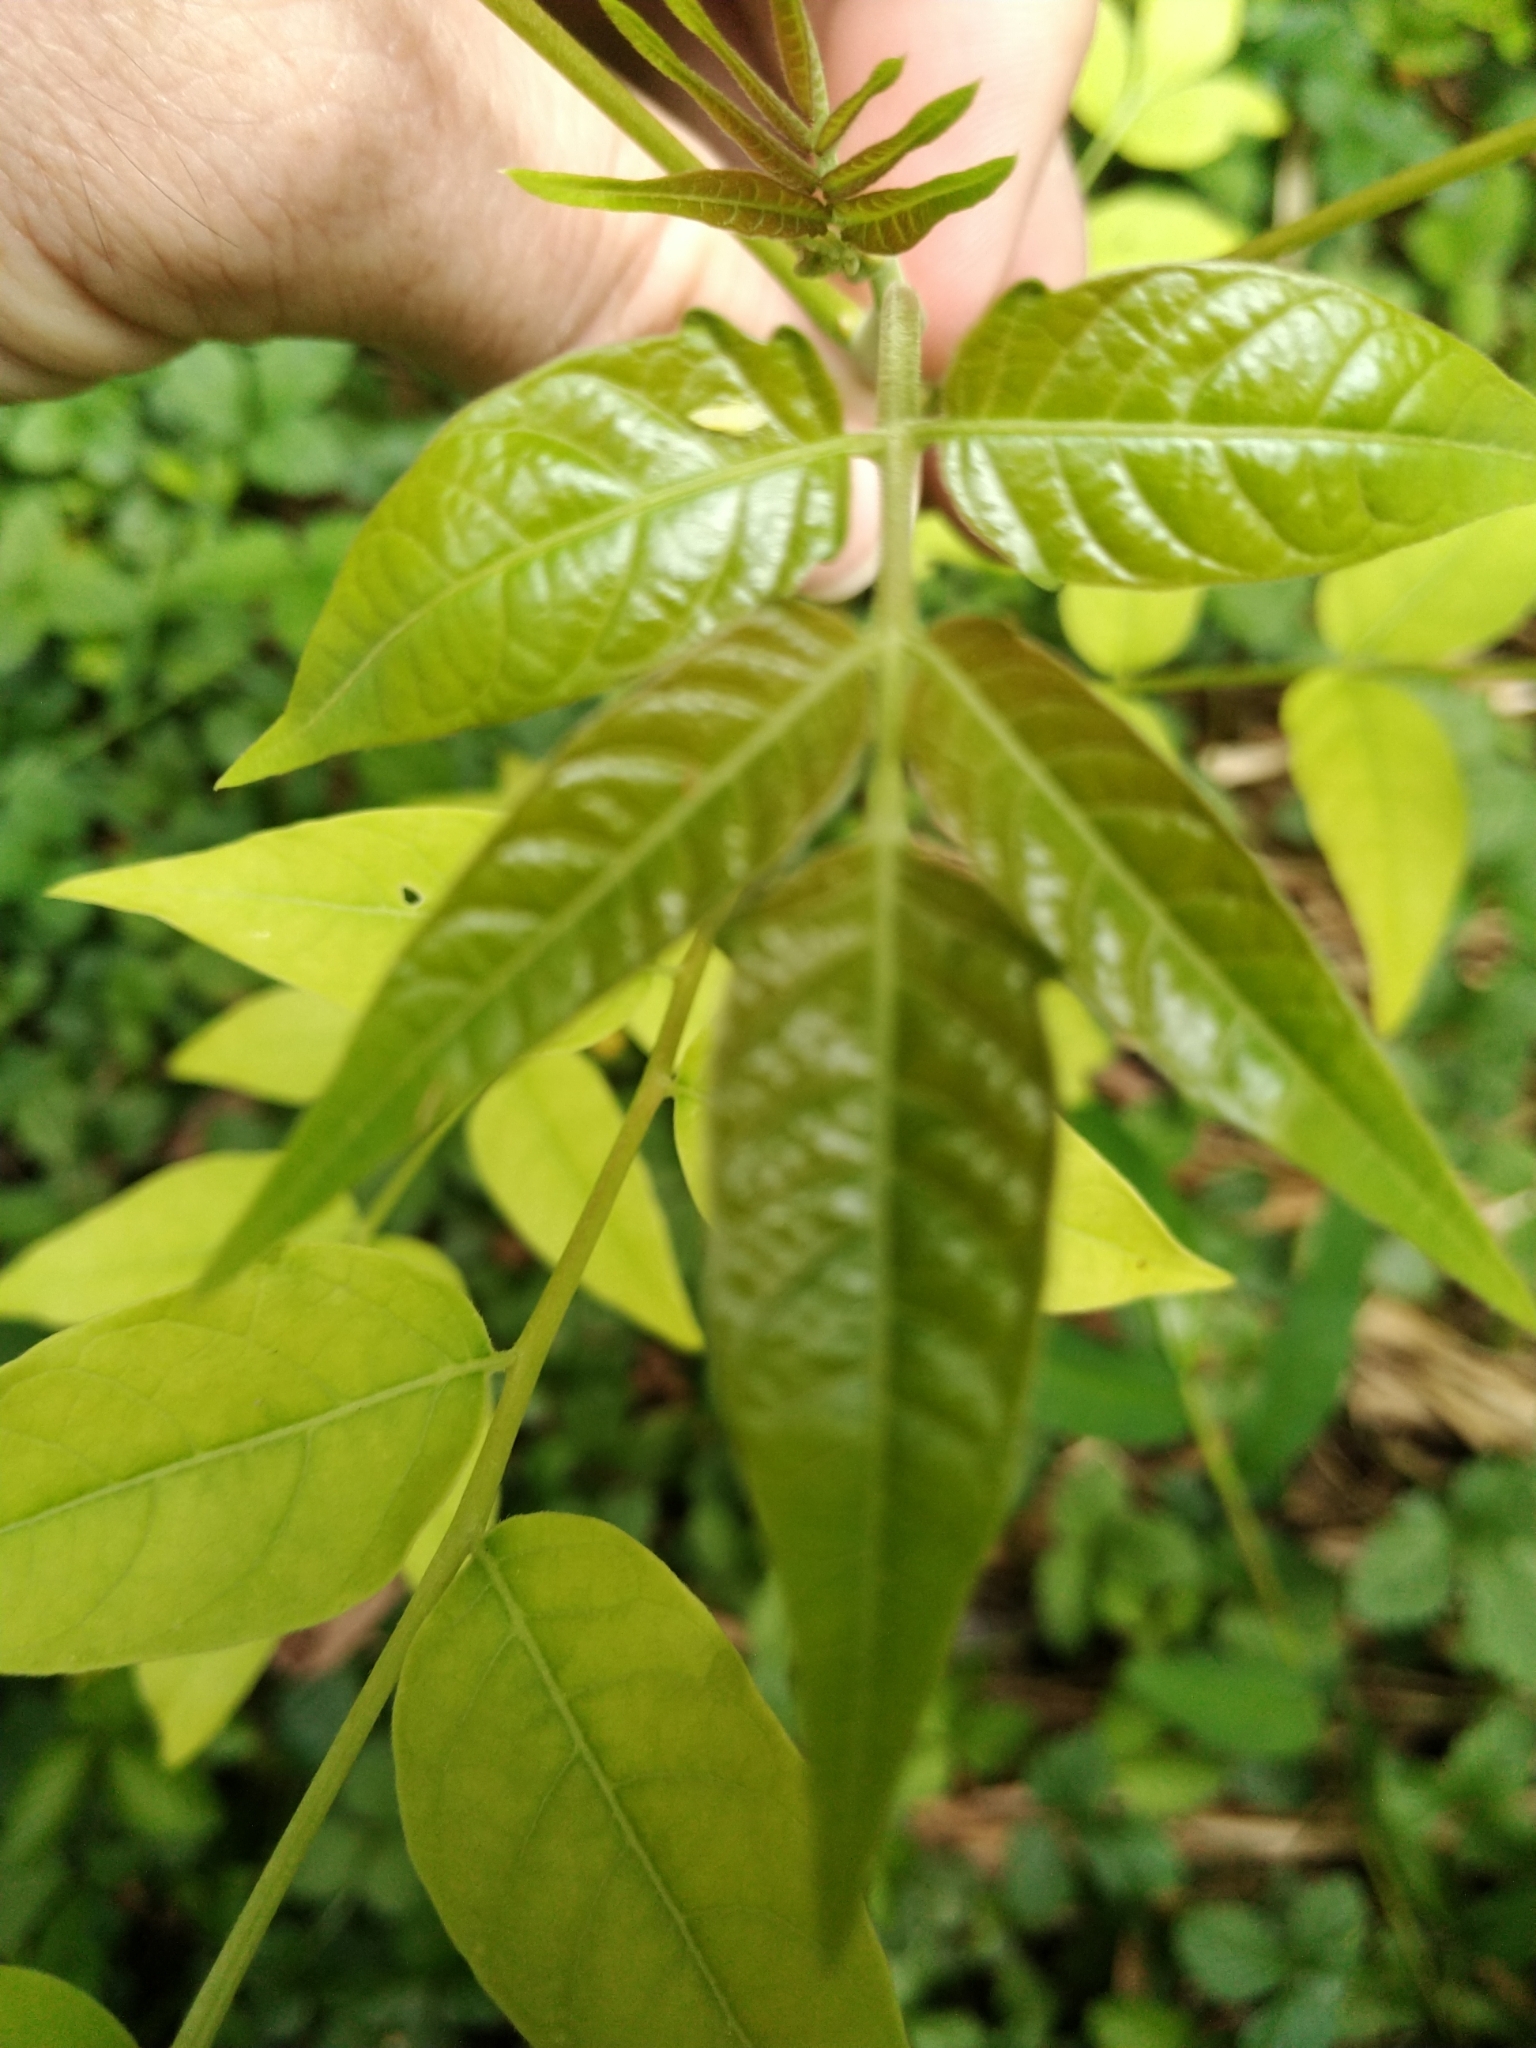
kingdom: Plantae
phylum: Tracheophyta
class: Magnoliopsida
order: Sapindales
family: Simaroubaceae
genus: Ailanthus
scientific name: Ailanthus altissima
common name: Tree-of-heaven
